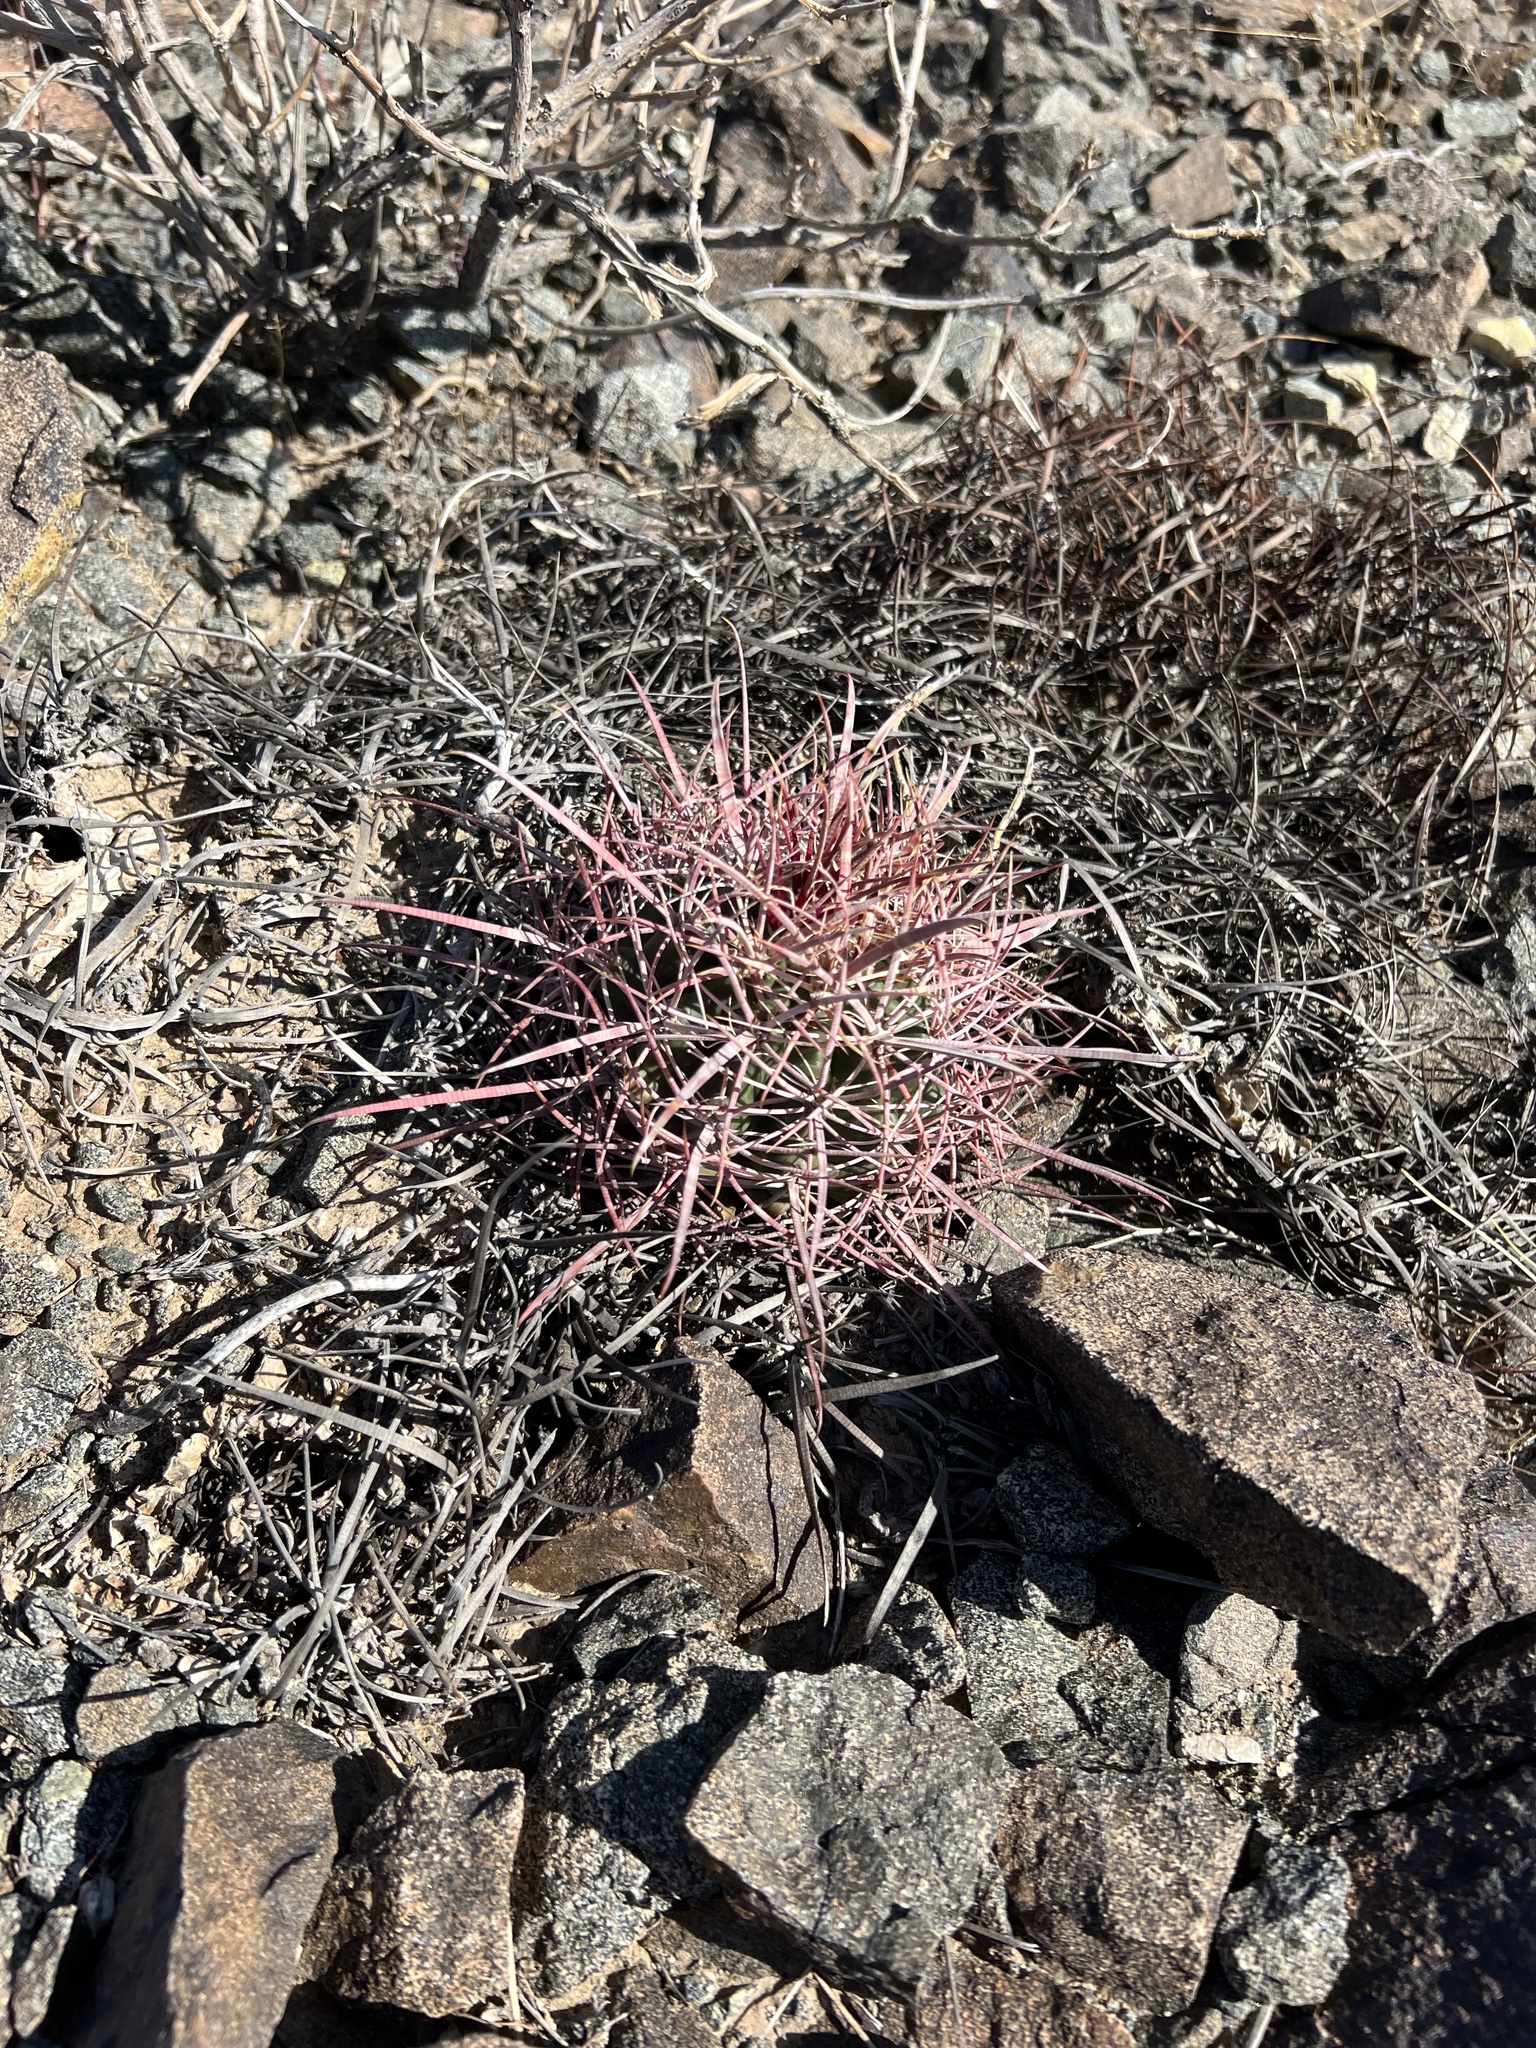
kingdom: Plantae
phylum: Tracheophyta
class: Magnoliopsida
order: Caryophyllales
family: Cactaceae
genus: Ferocactus
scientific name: Ferocactus cylindraceus
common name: California barrel cactus
